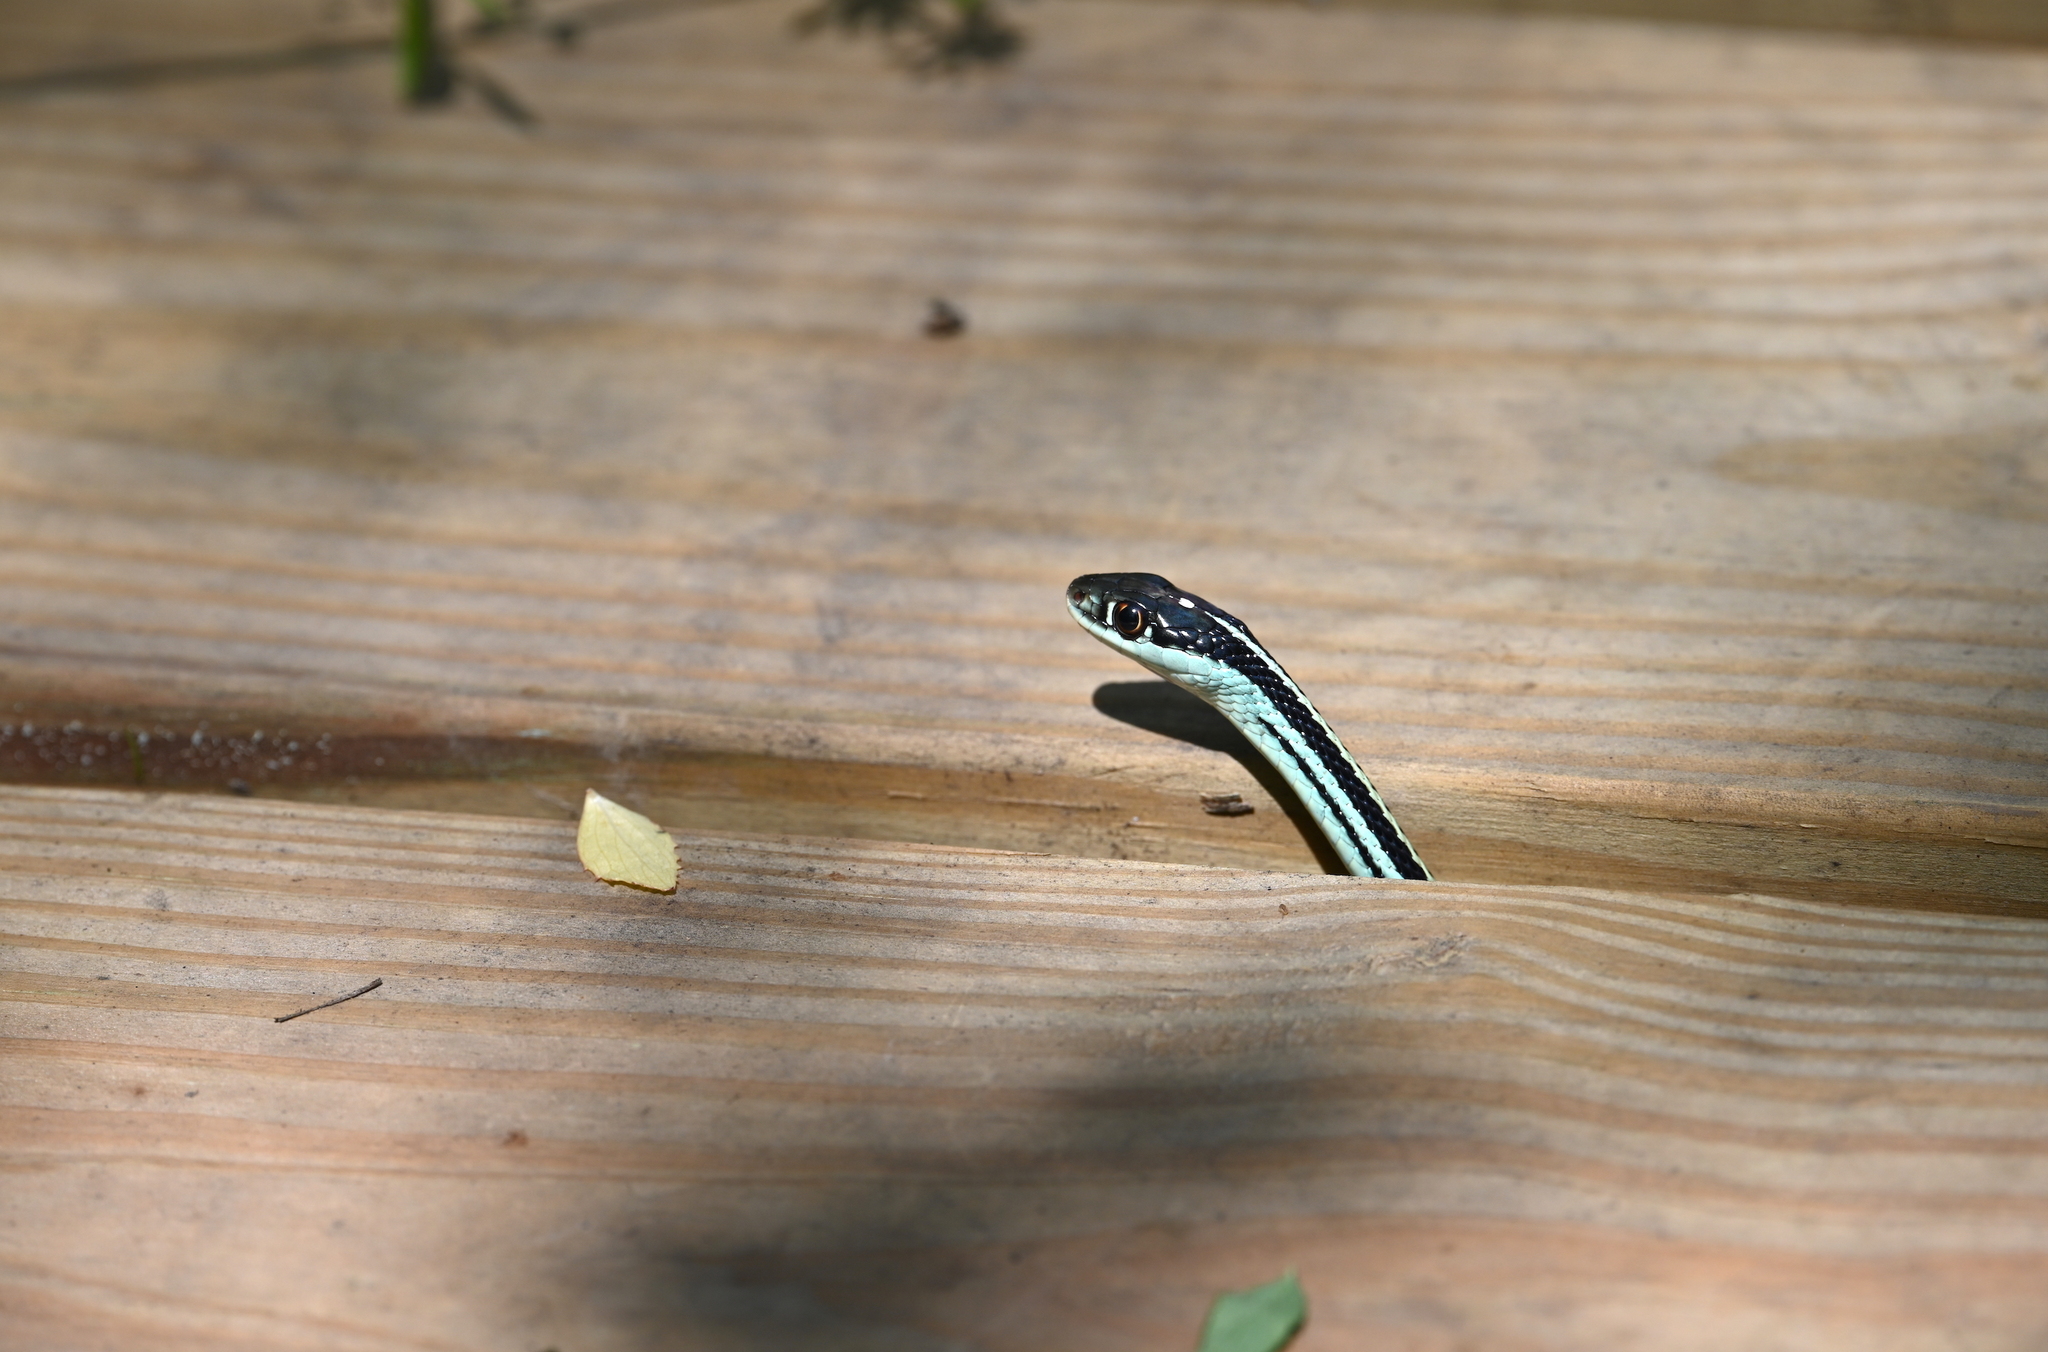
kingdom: Animalia
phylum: Chordata
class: Squamata
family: Colubridae
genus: Thamnophis
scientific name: Thamnophis proximus
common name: Western ribbon snake
